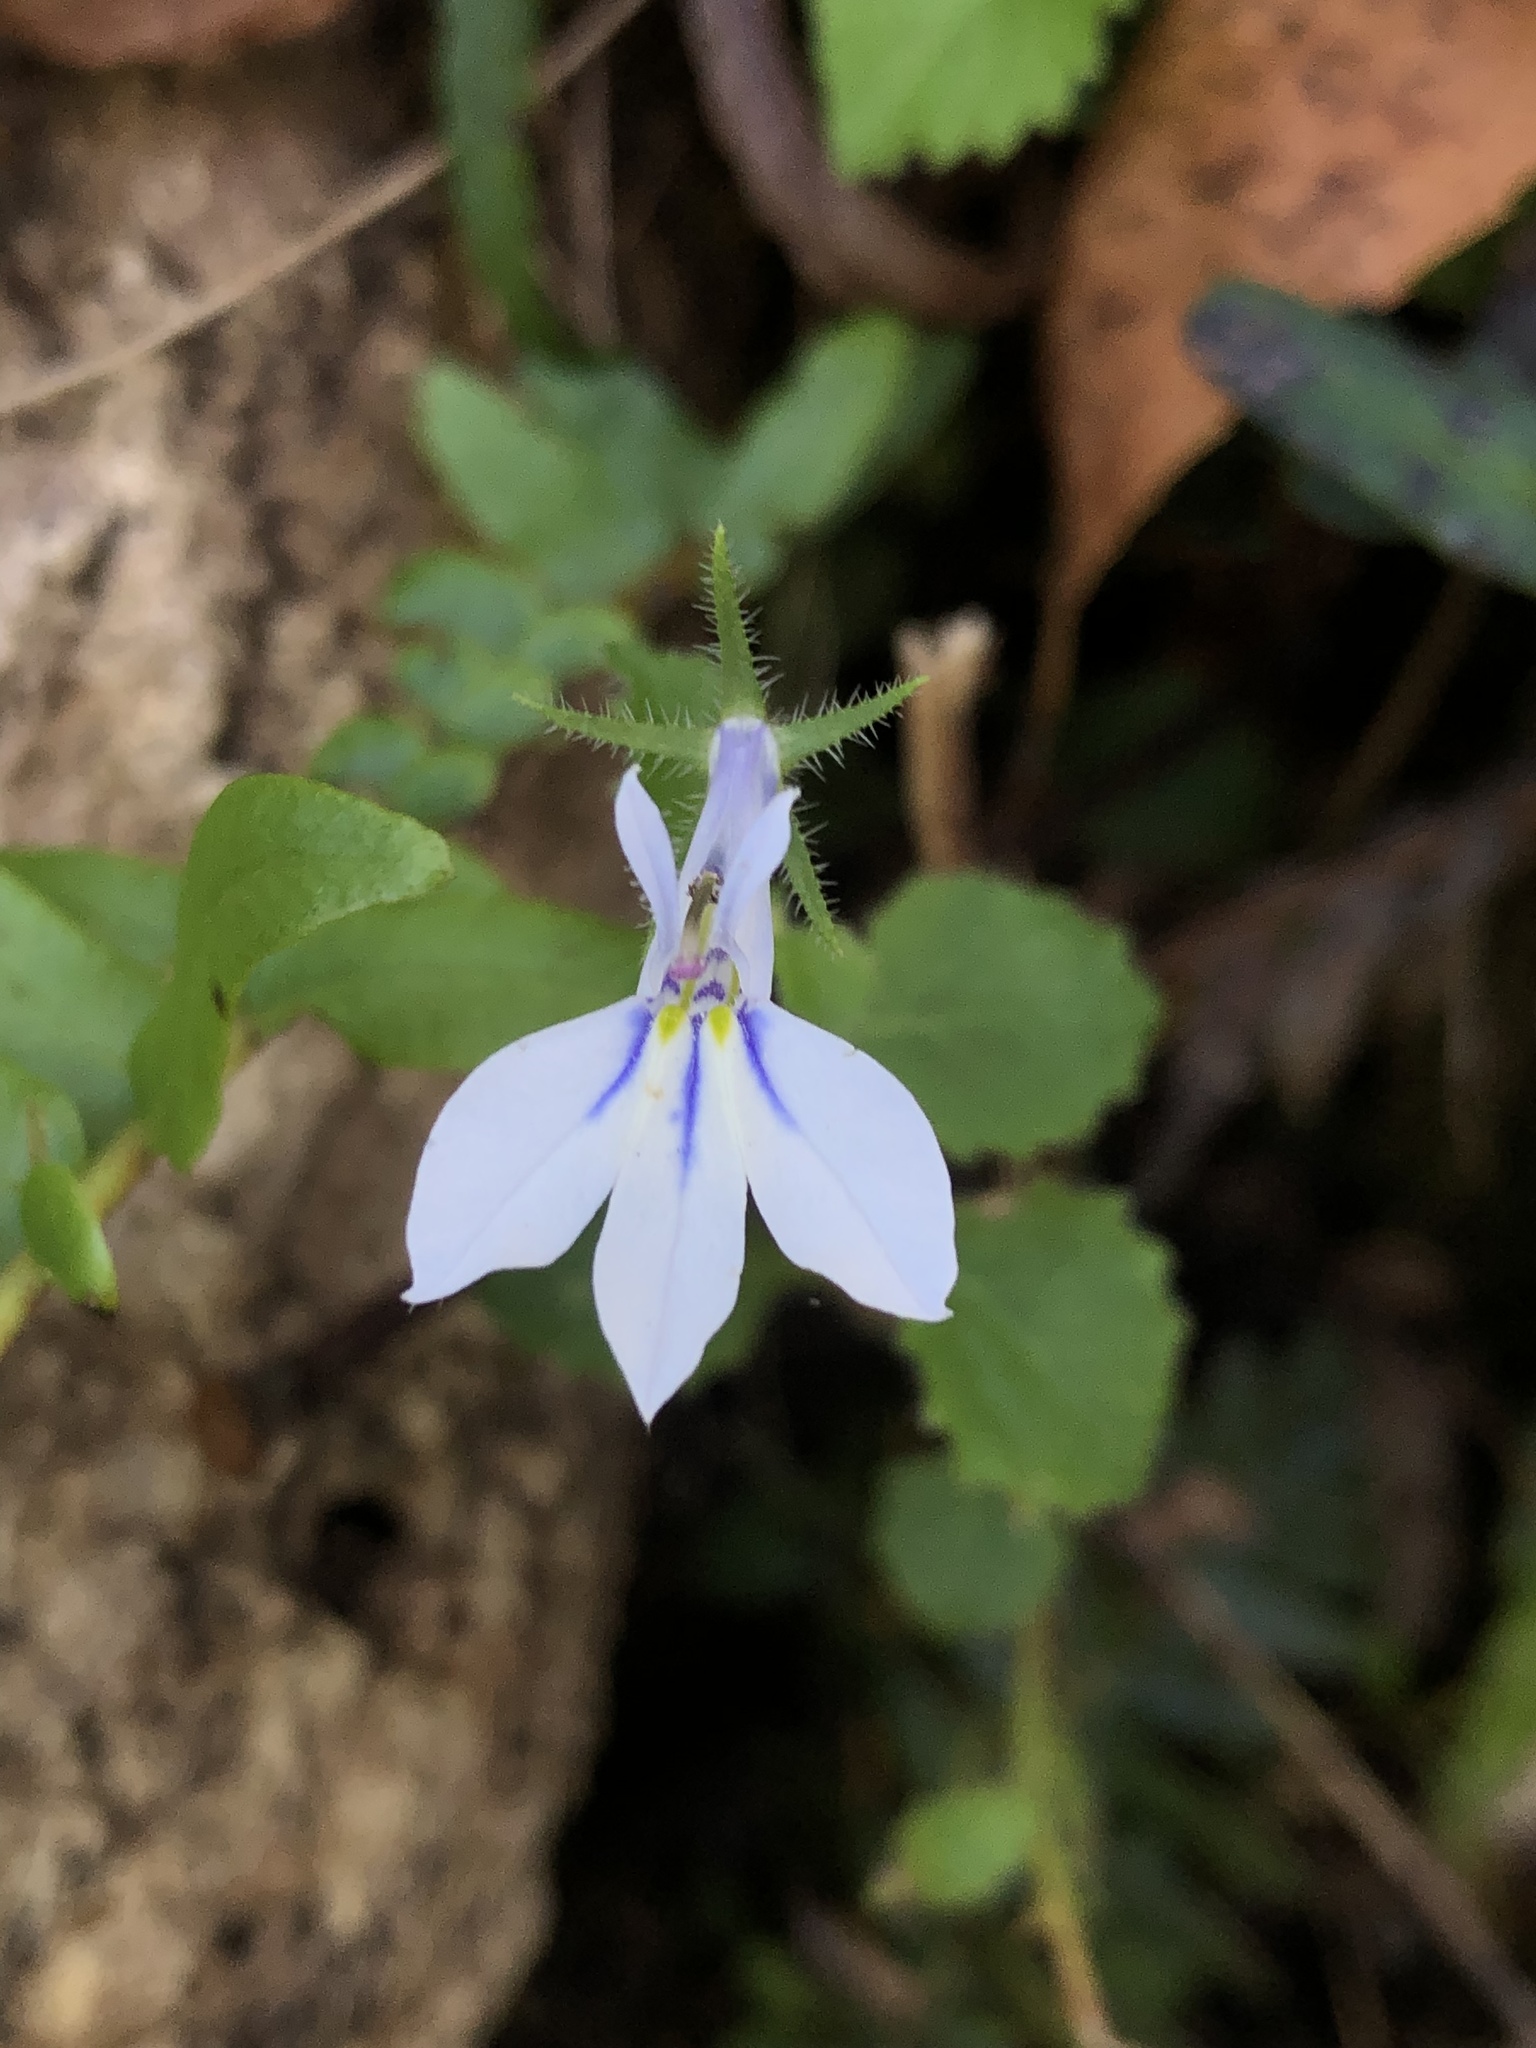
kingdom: Plantae
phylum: Tracheophyta
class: Magnoliopsida
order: Asterales
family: Campanulaceae
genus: Lobelia
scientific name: Lobelia cuneifolia
